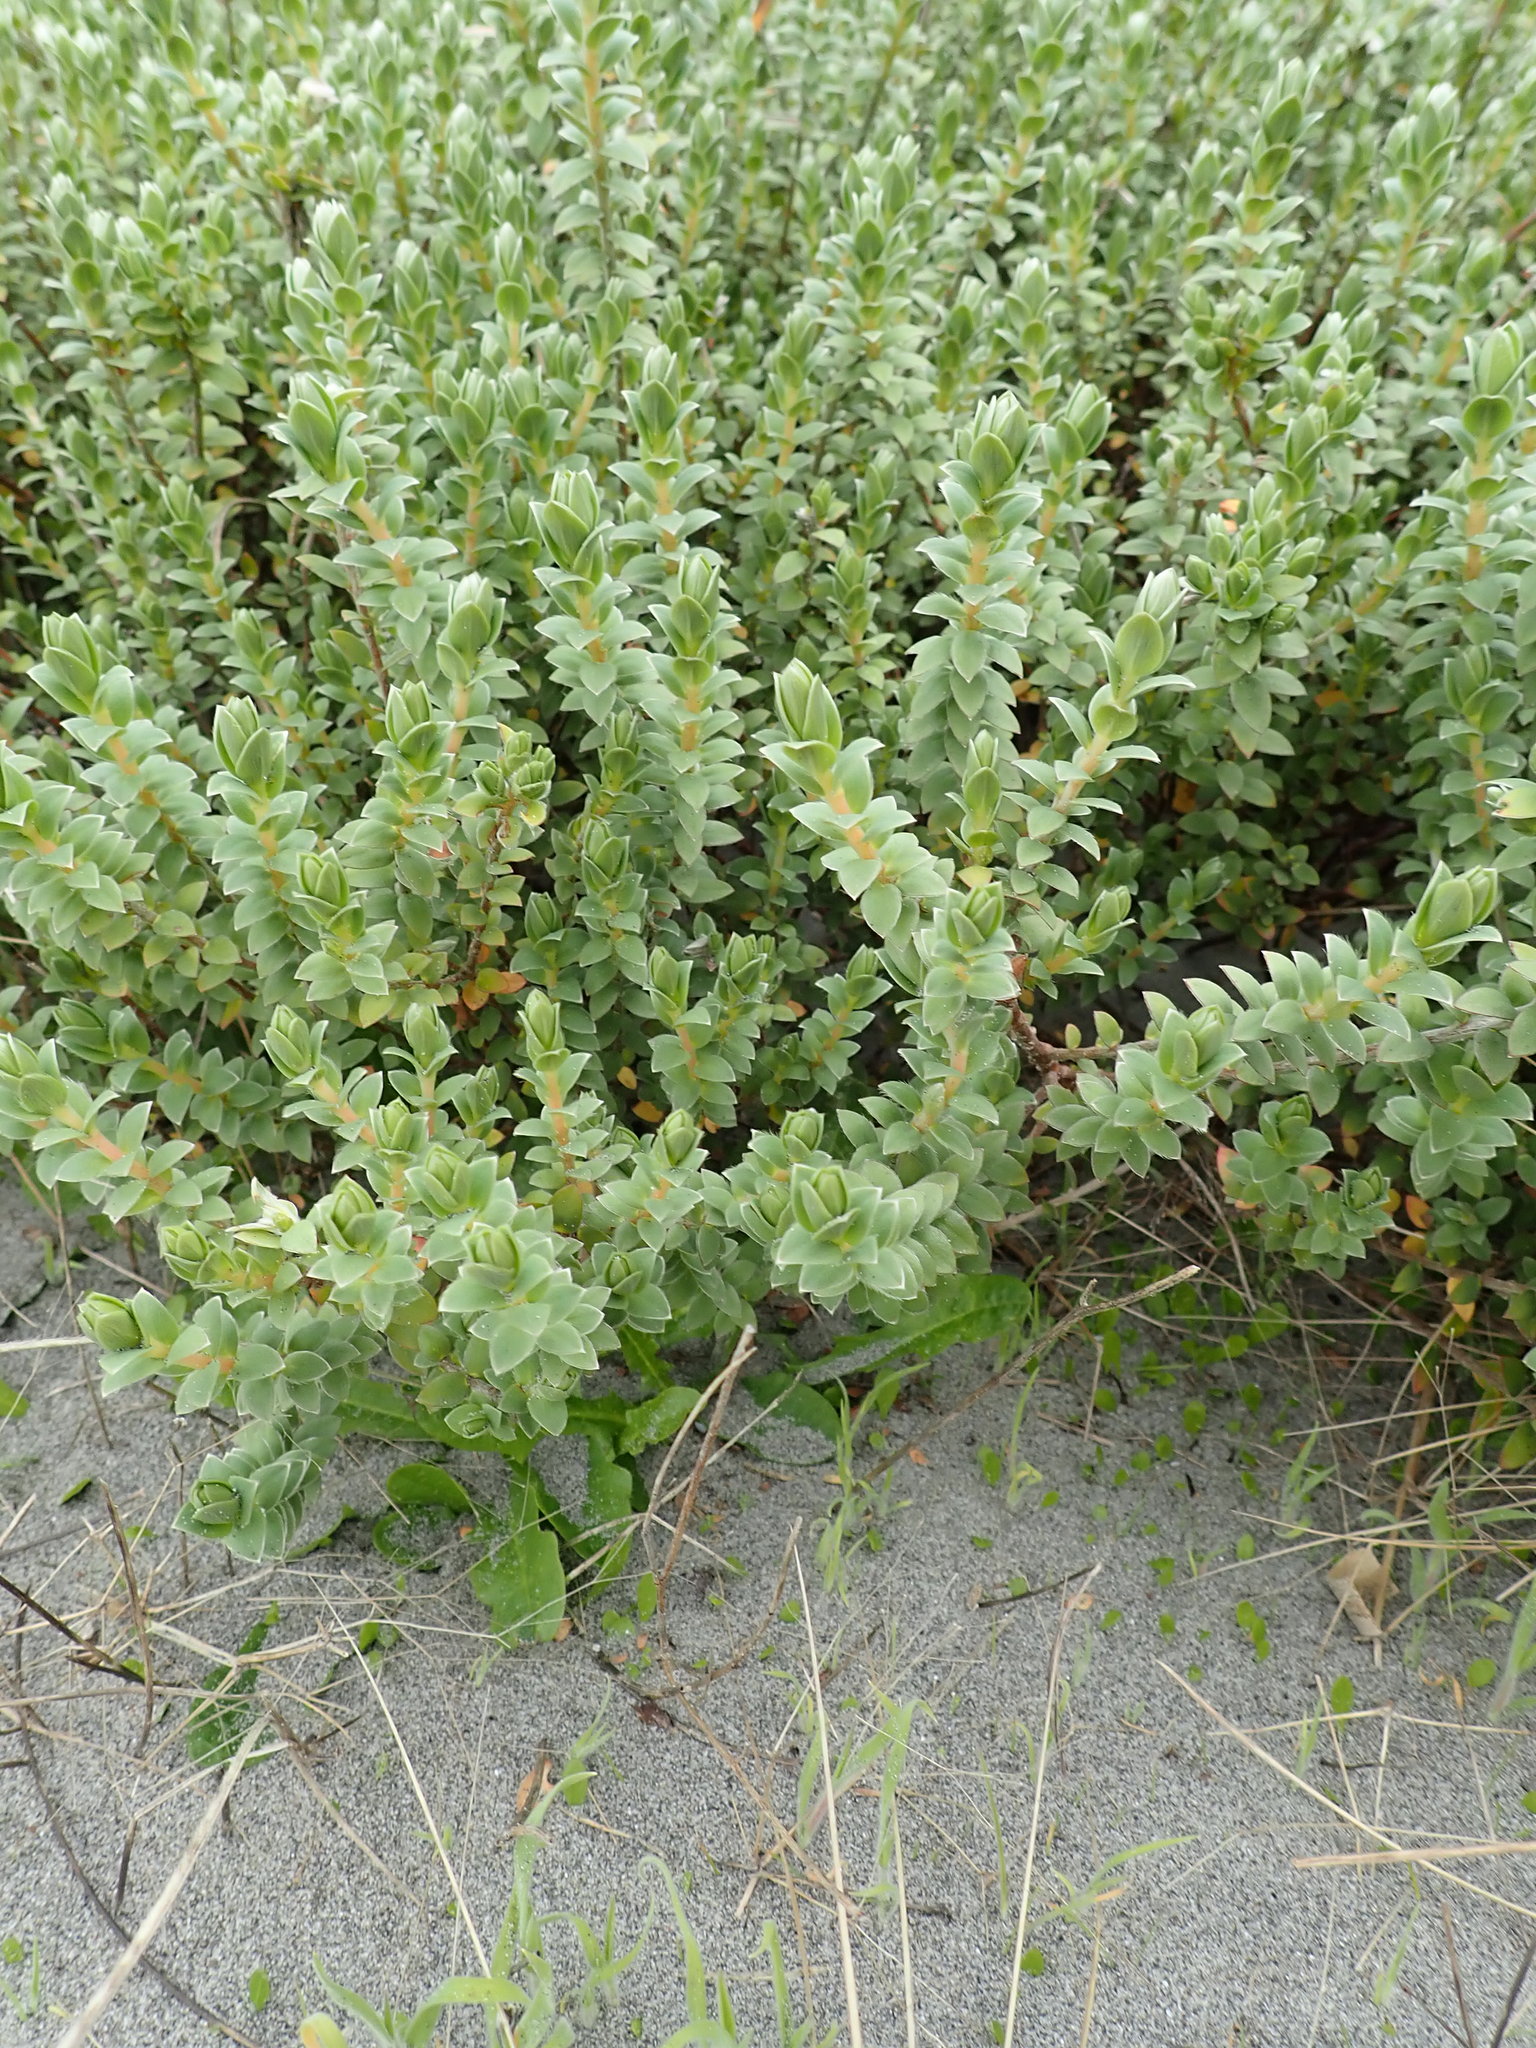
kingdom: Plantae
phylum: Tracheophyta
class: Magnoliopsida
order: Malvales
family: Thymelaeaceae
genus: Pimelea
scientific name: Pimelea villosa
